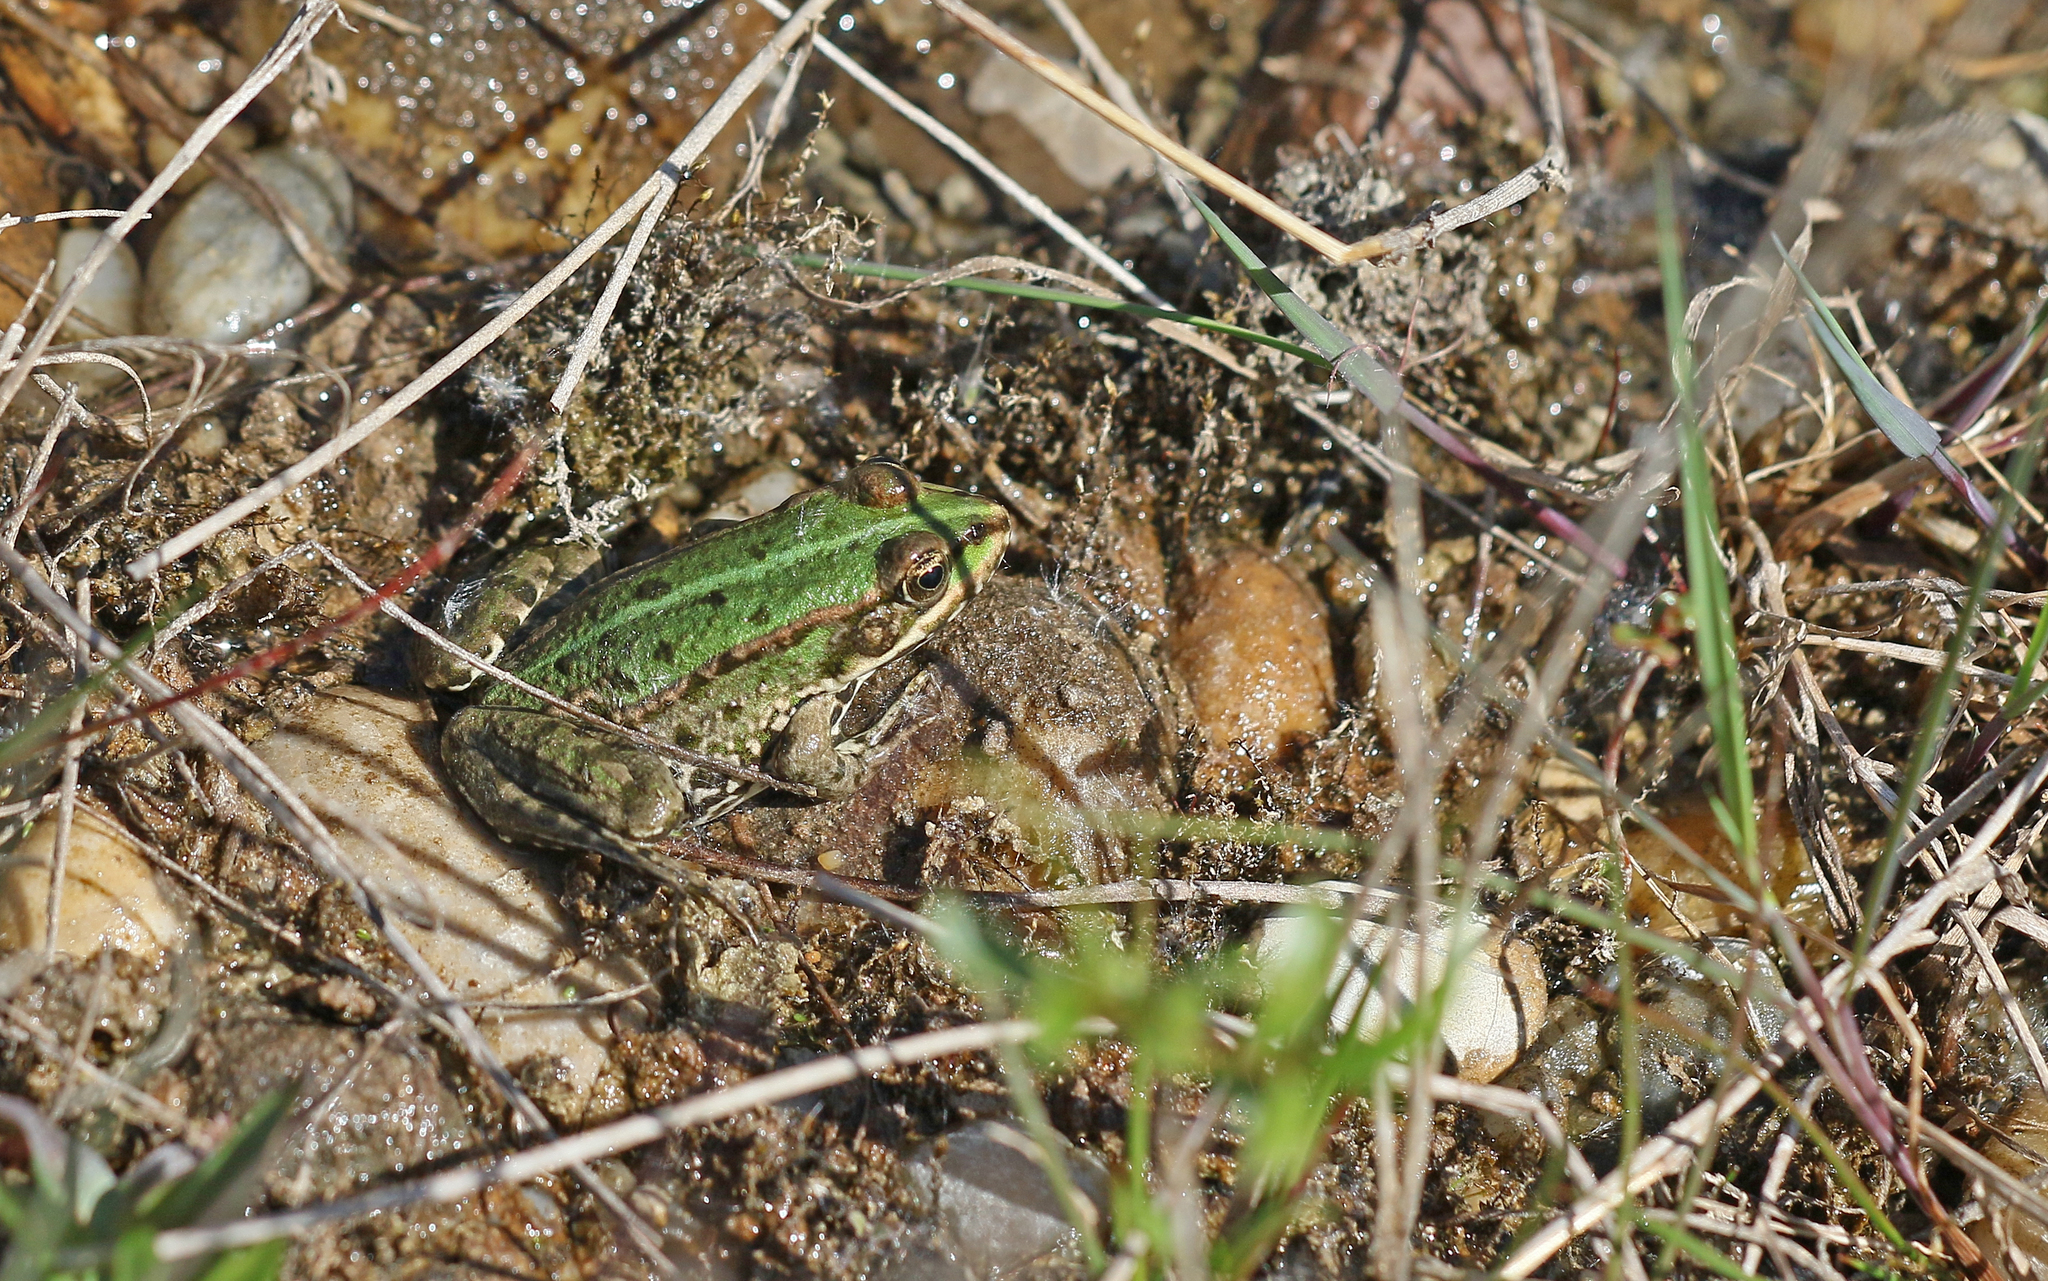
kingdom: Animalia
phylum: Chordata
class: Amphibia
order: Anura
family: Ranidae
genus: Pelophylax
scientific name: Pelophylax
